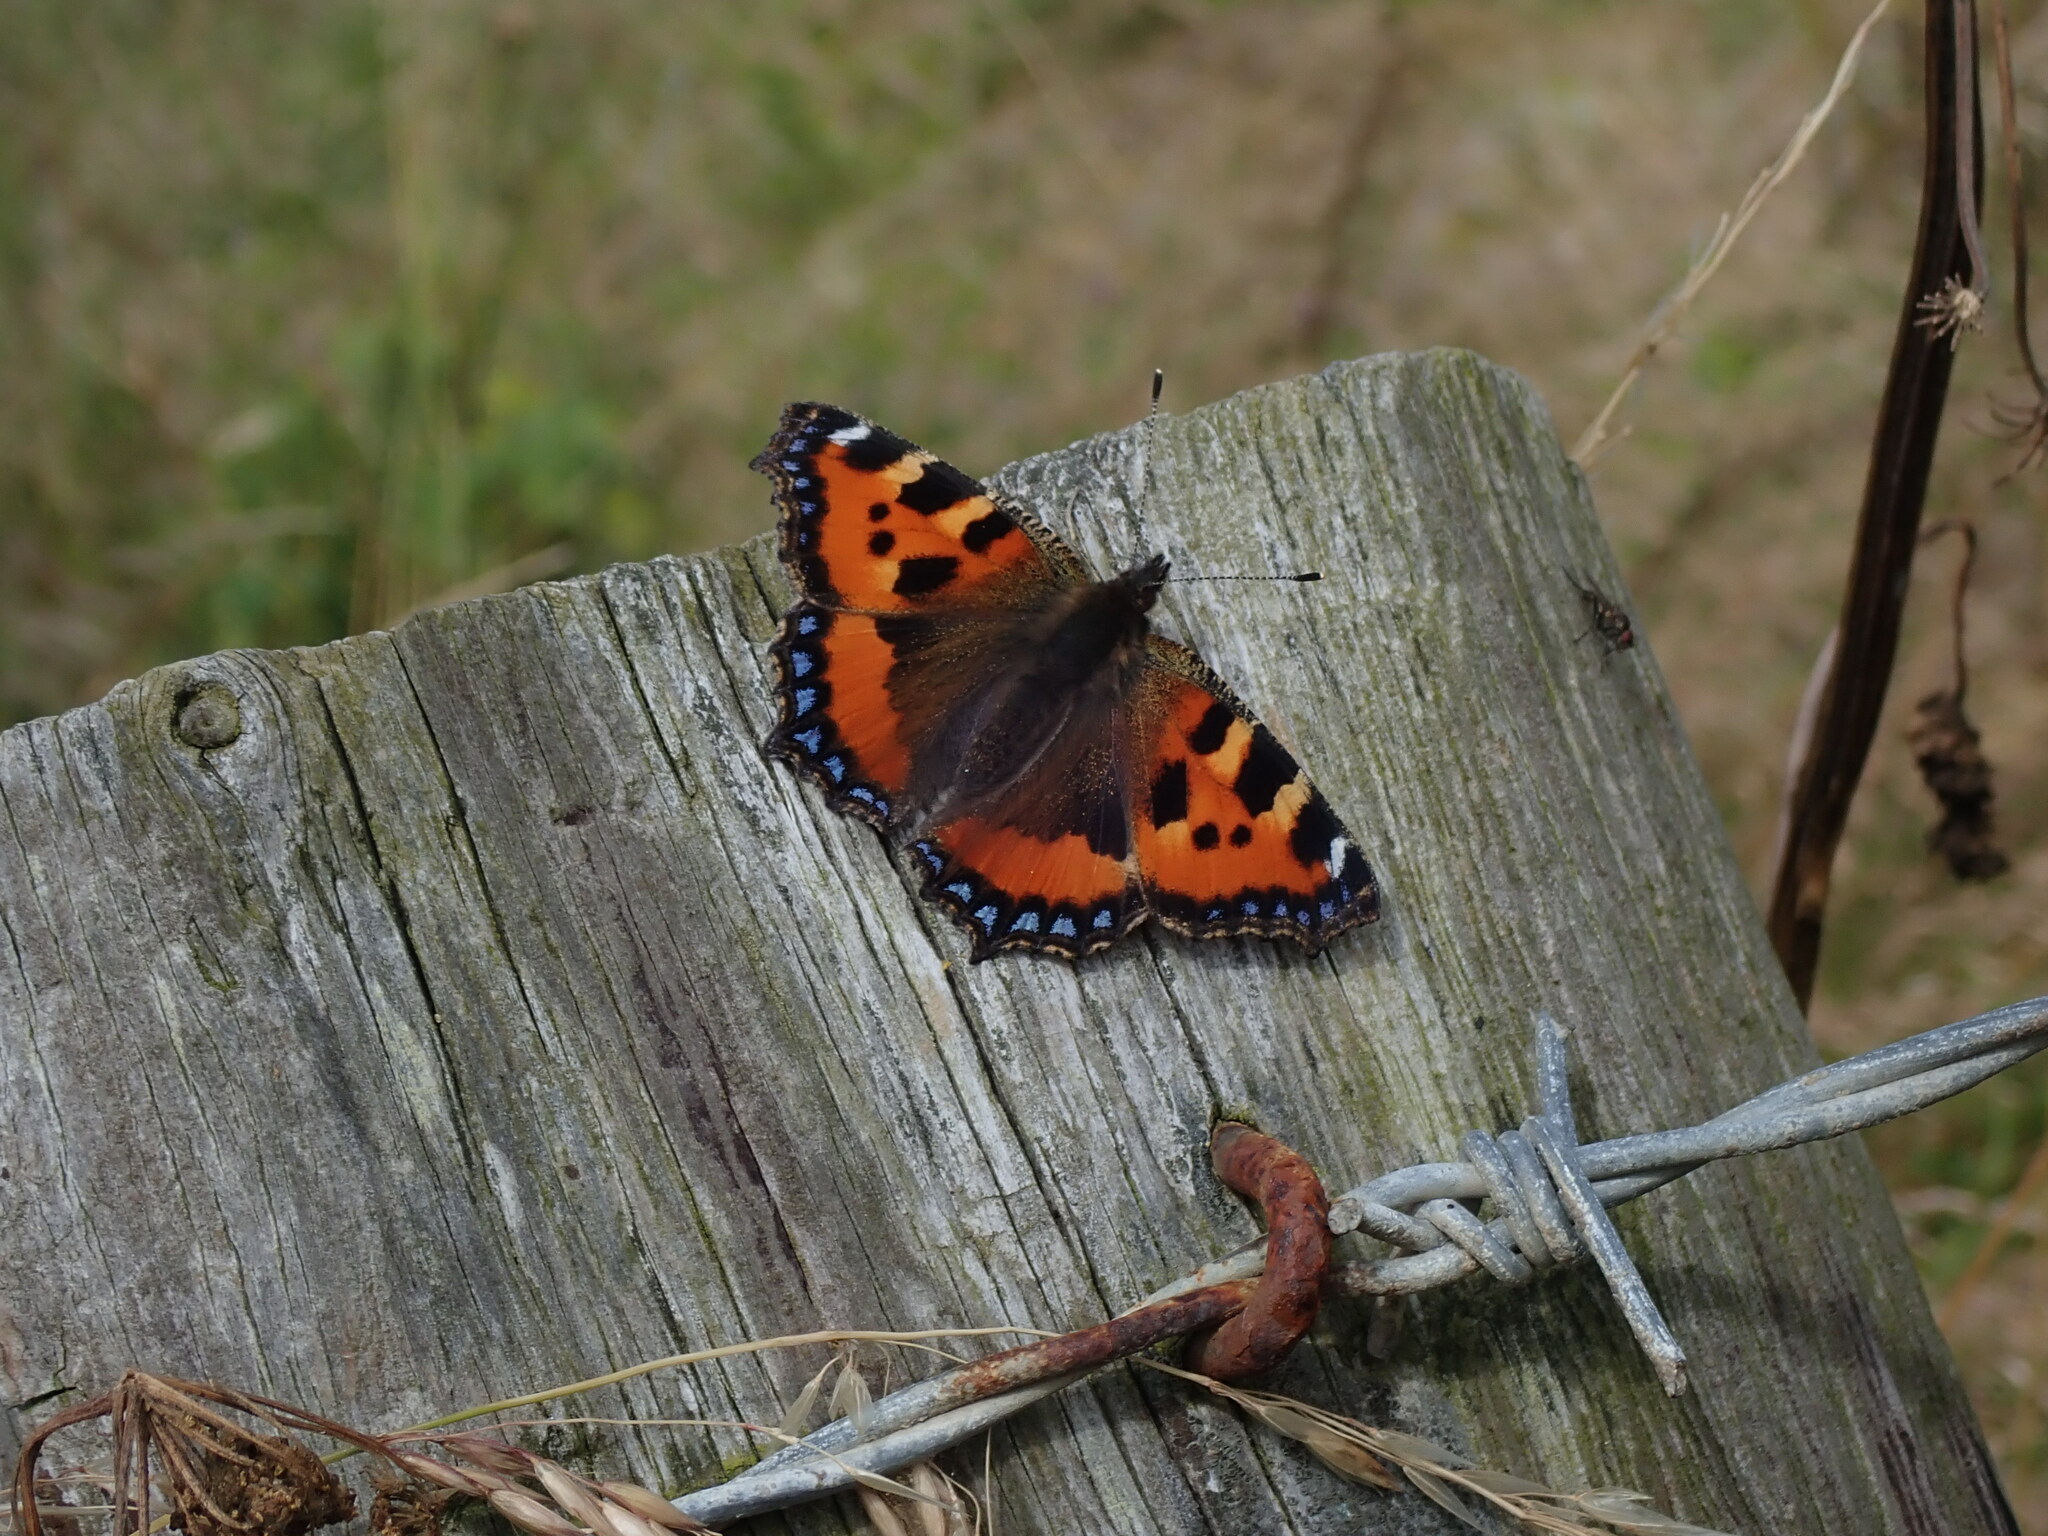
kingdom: Animalia
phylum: Arthropoda
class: Insecta
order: Lepidoptera
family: Nymphalidae
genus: Aglais
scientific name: Aglais urticae
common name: Small tortoiseshell
